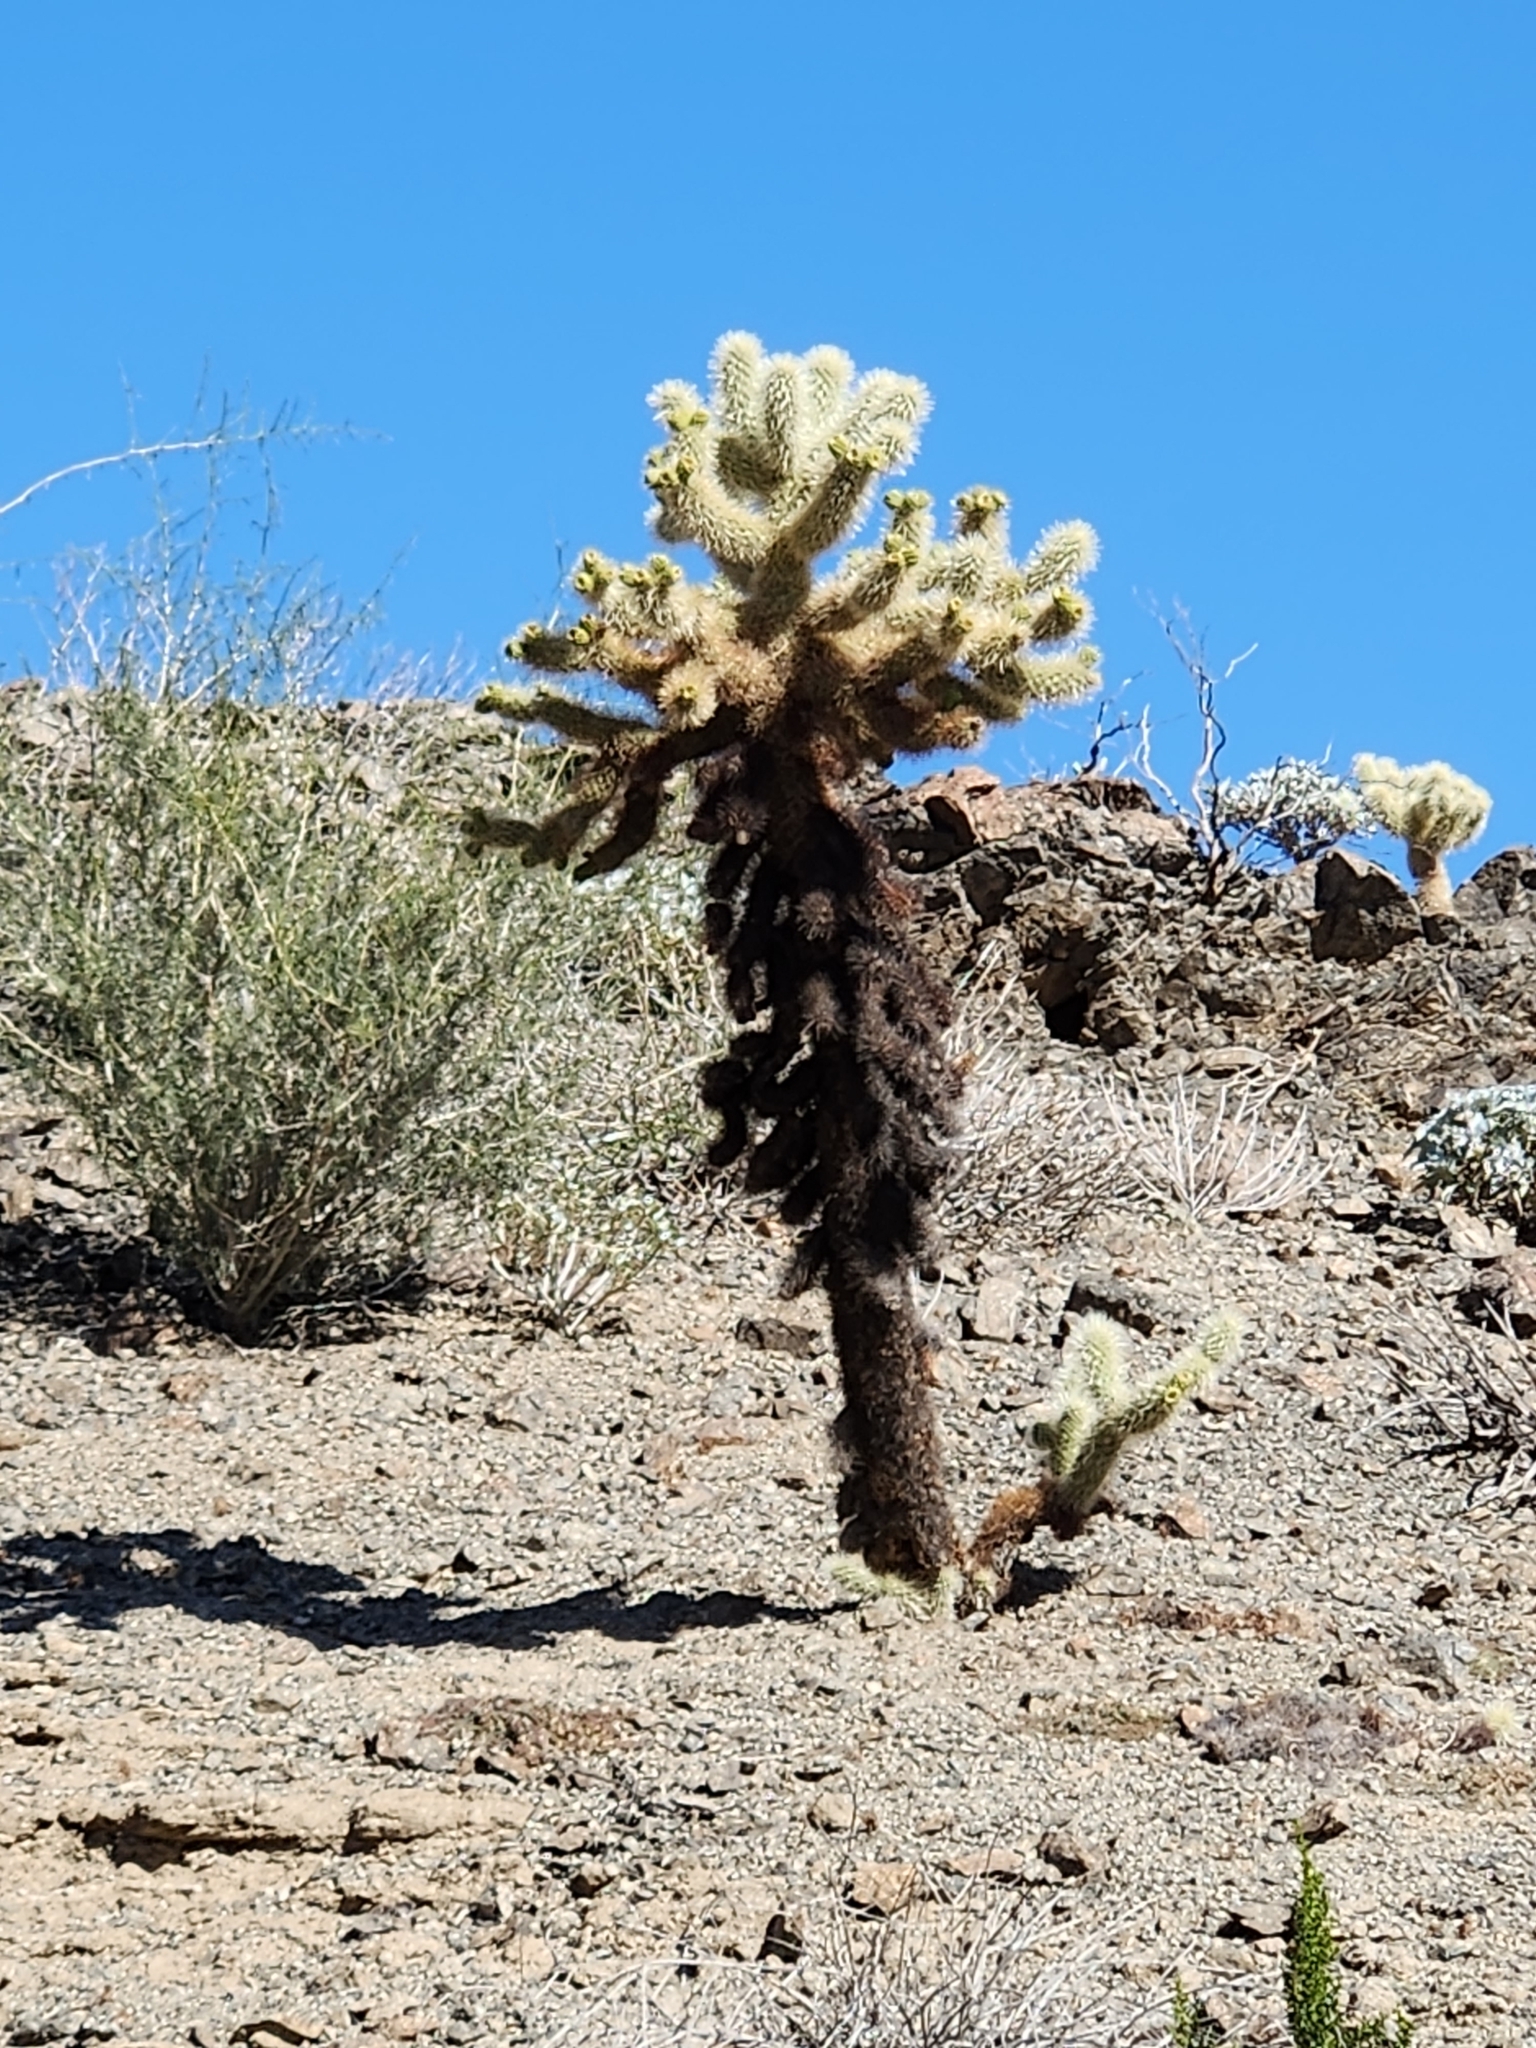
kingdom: Plantae
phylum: Tracheophyta
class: Magnoliopsida
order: Caryophyllales
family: Cactaceae
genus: Cylindropuntia
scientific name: Cylindropuntia fosbergii
